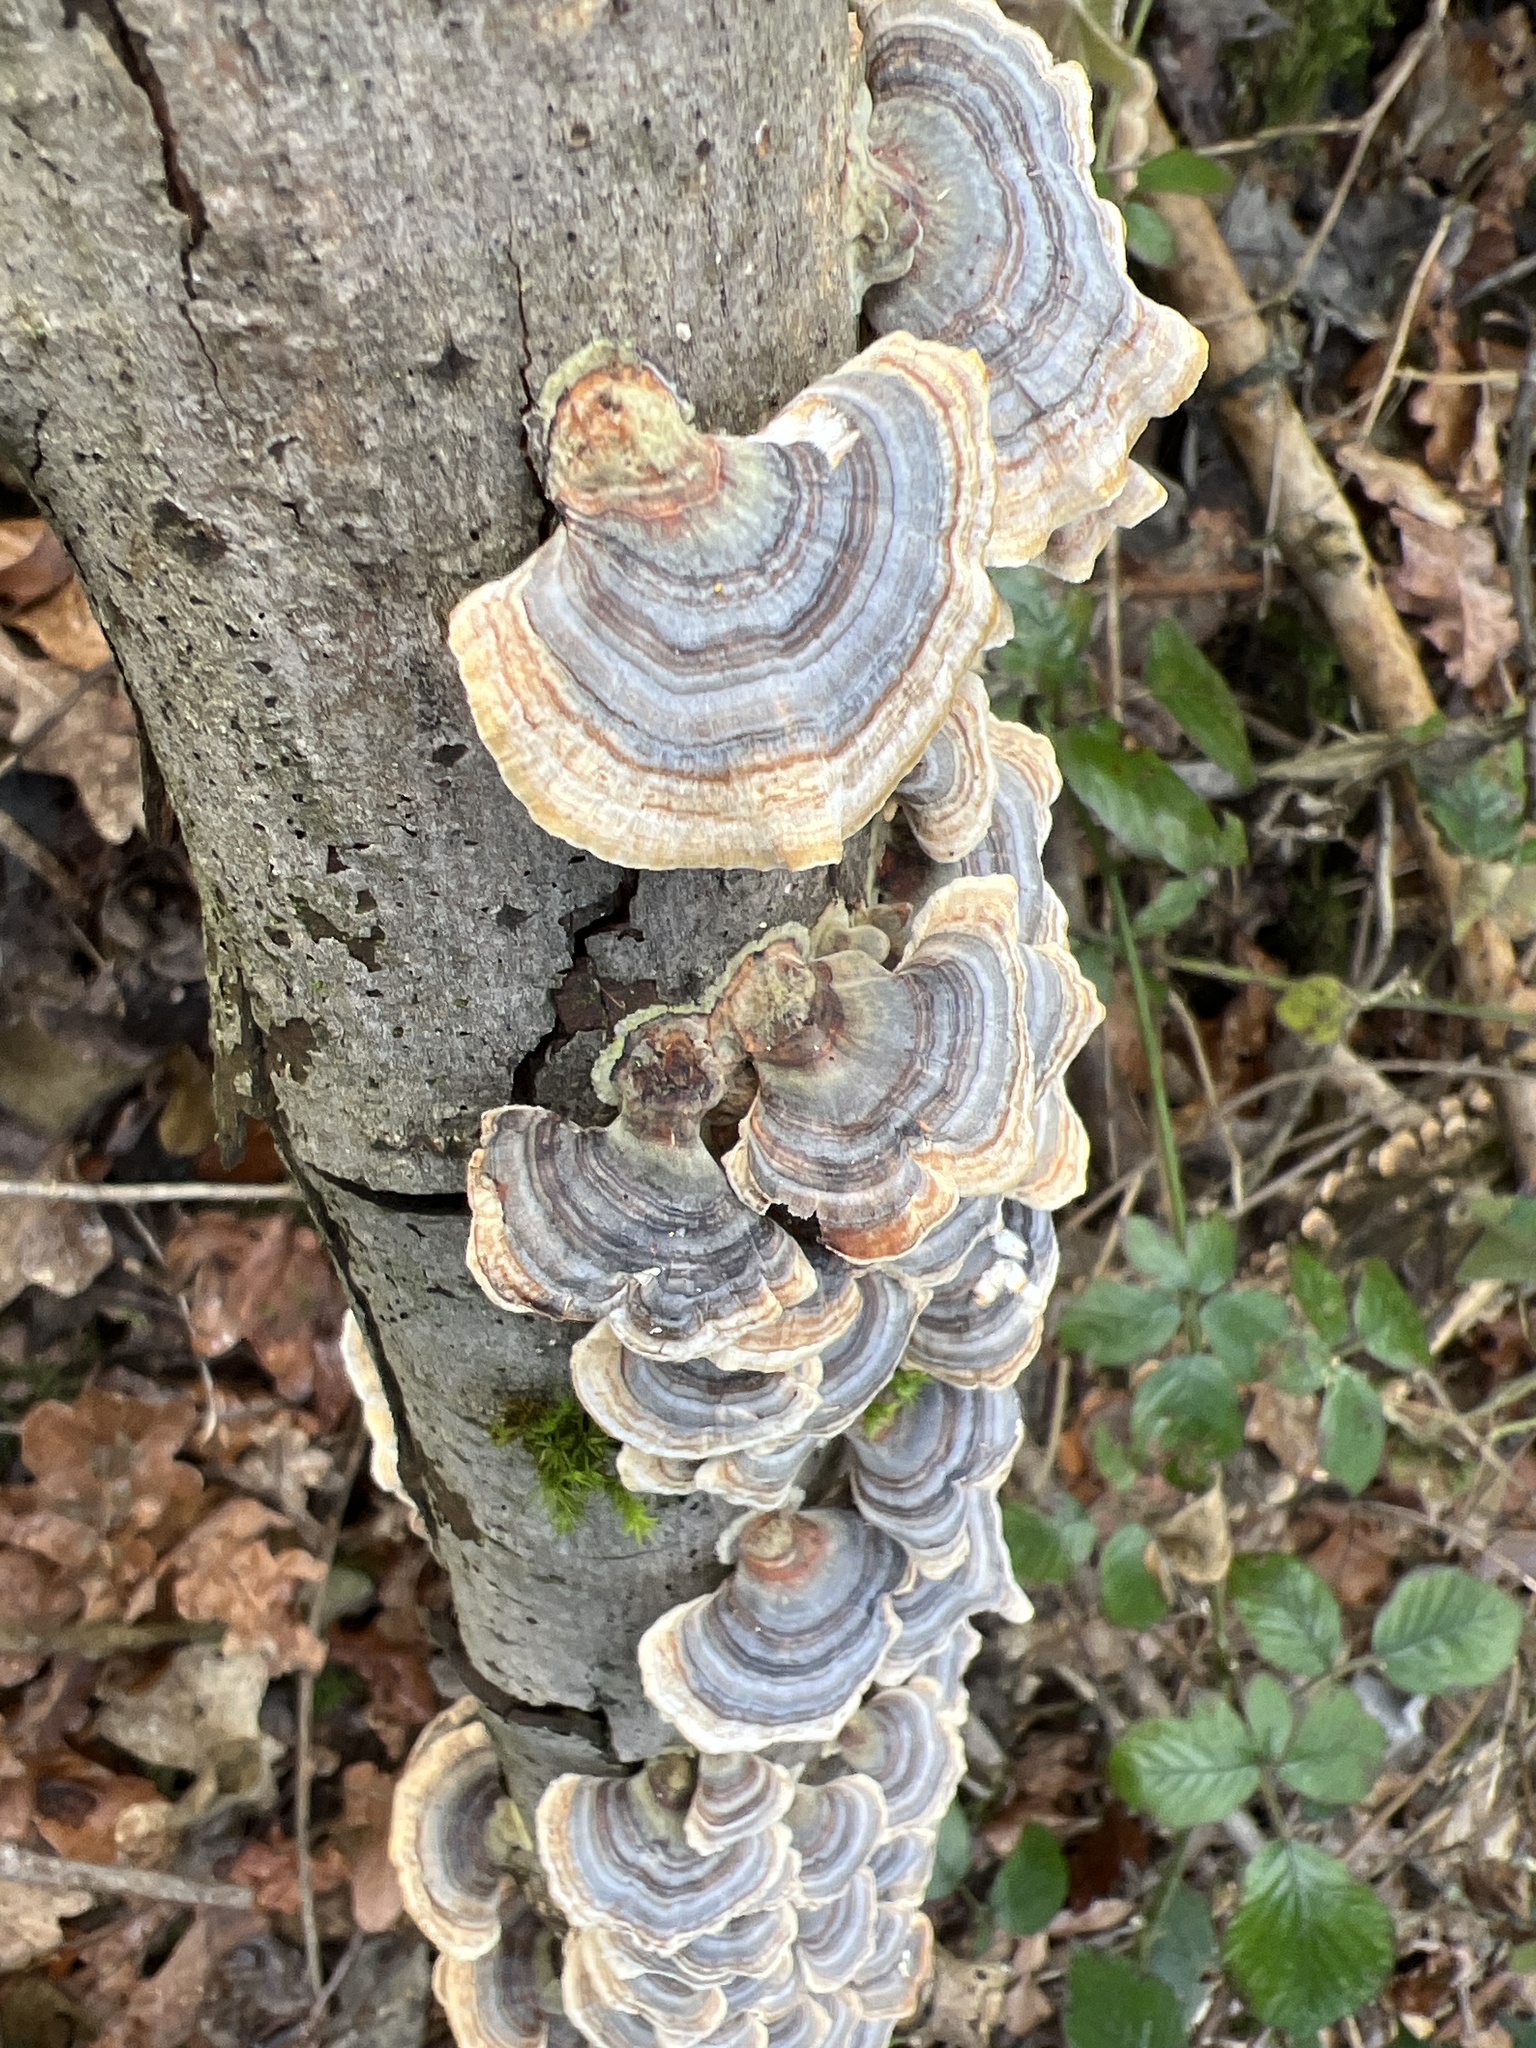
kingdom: Fungi
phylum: Basidiomycota
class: Agaricomycetes
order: Polyporales
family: Polyporaceae
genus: Trametes
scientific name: Trametes versicolor
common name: Turkeytail
